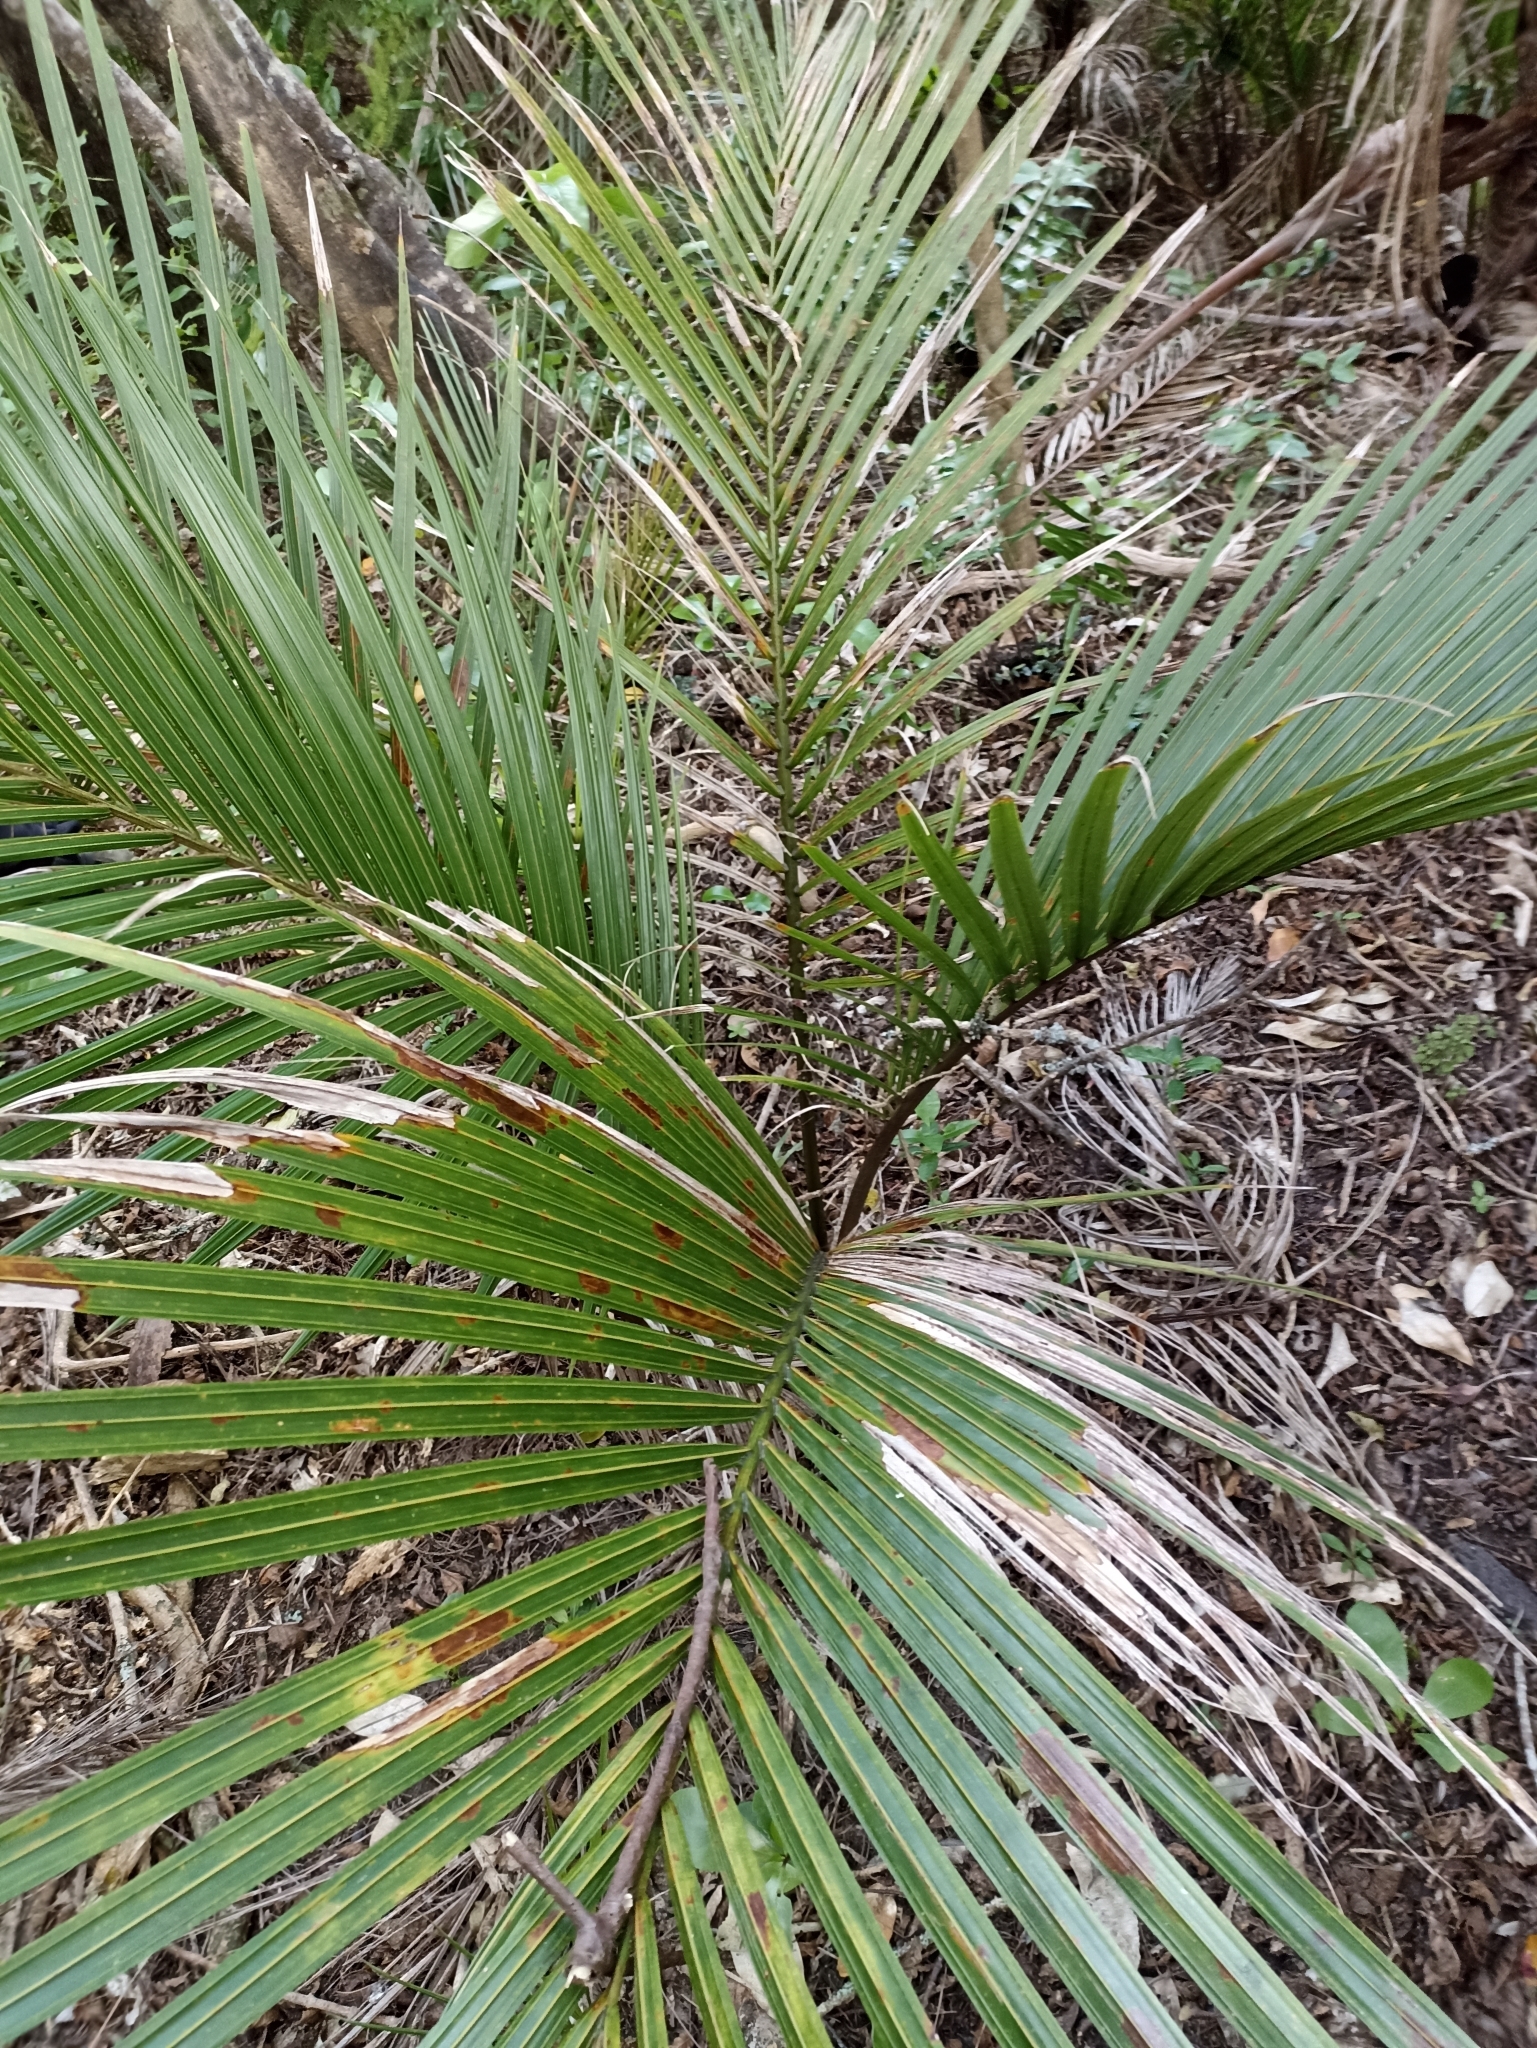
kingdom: Plantae
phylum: Tracheophyta
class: Liliopsida
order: Arecales
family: Arecaceae
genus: Rhopalostylis
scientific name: Rhopalostylis sapida
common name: Feather-duster palm
